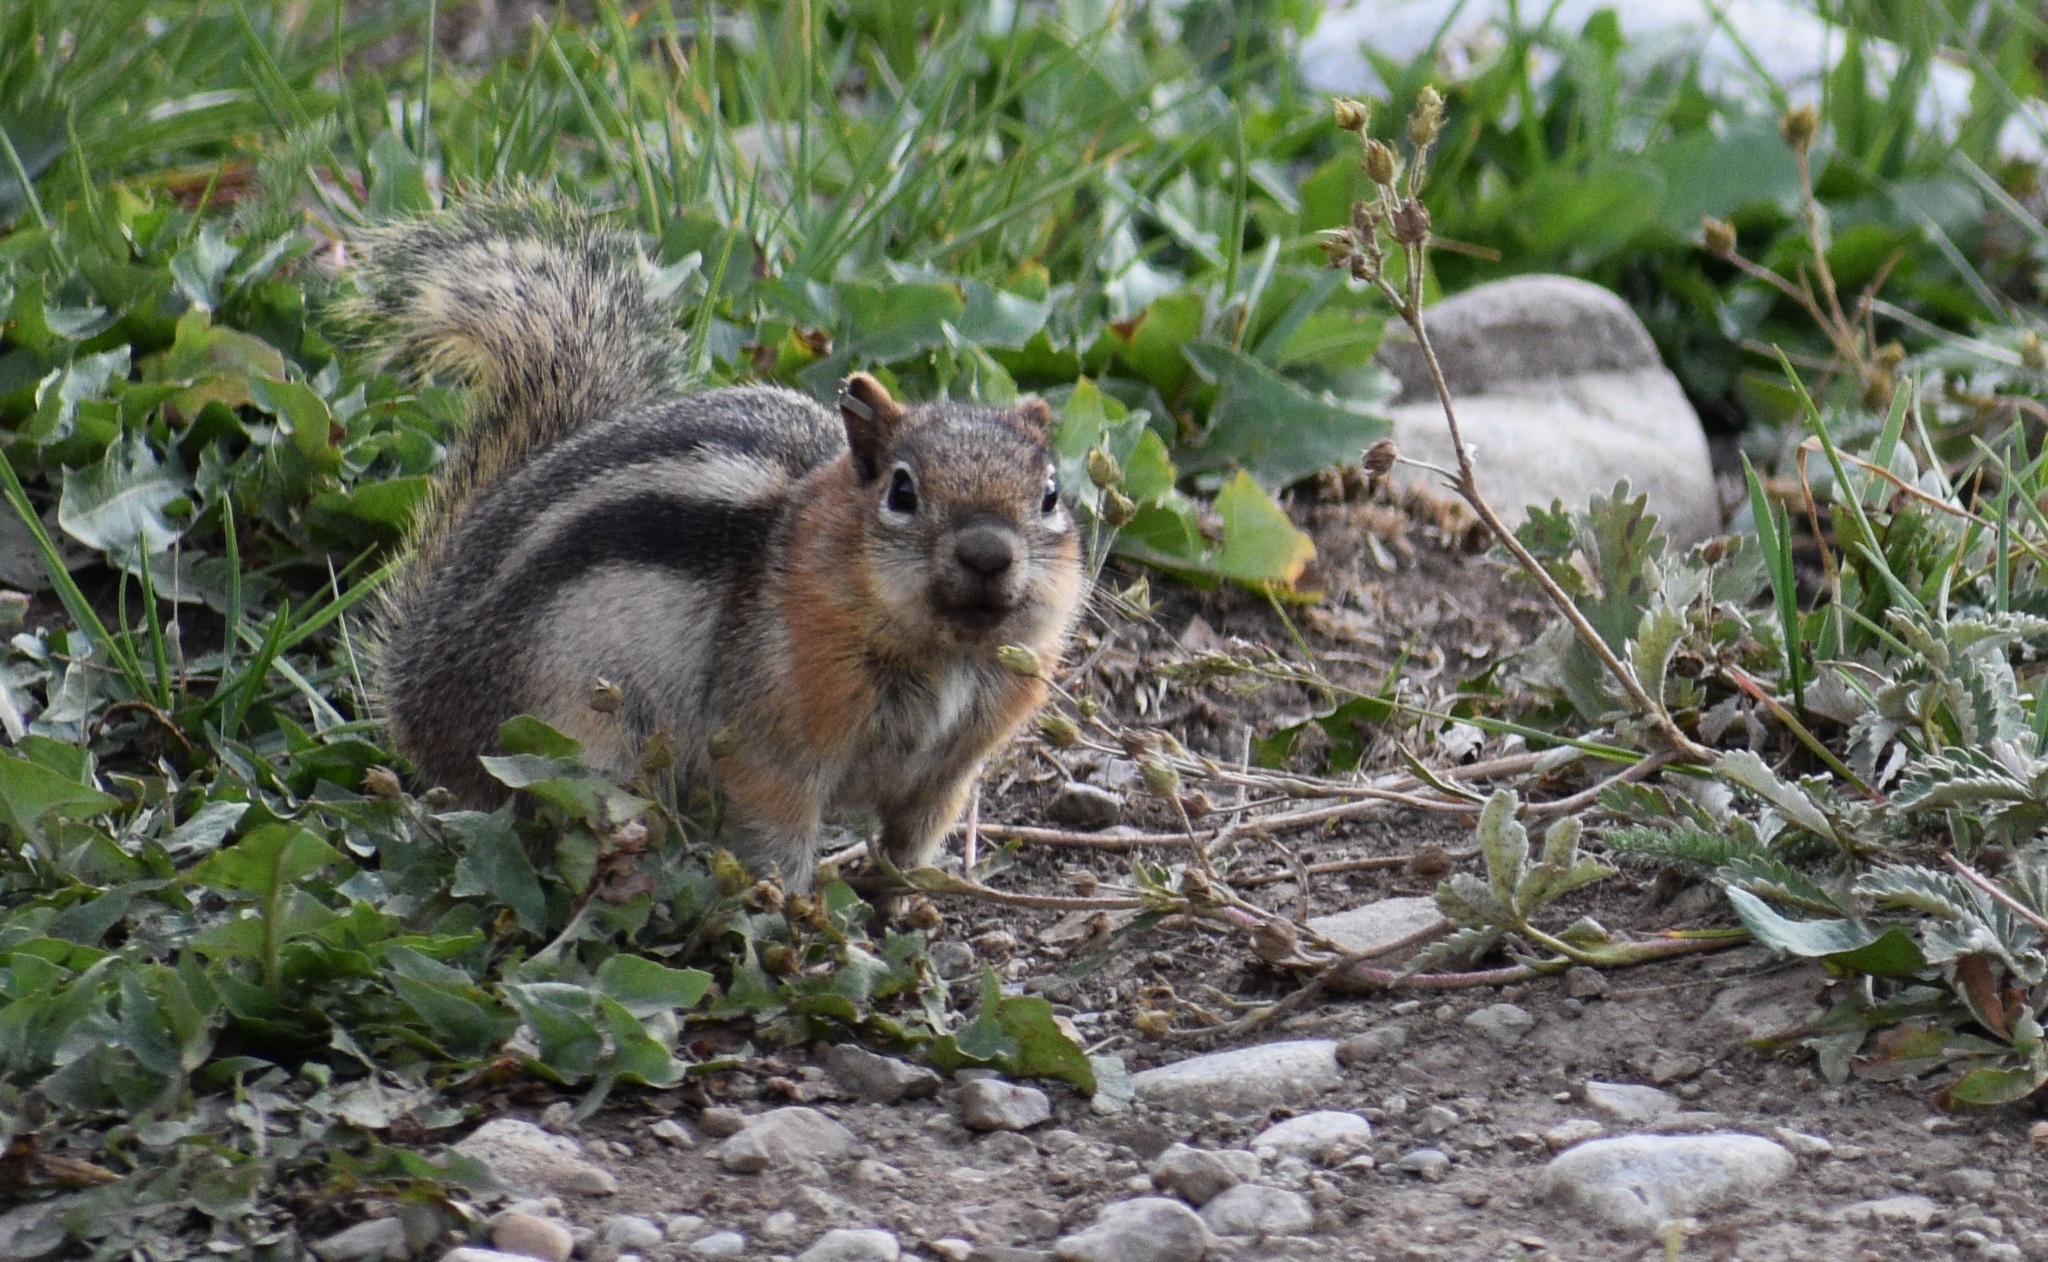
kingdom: Animalia
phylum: Chordata
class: Mammalia
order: Rodentia
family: Sciuridae
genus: Callospermophilus
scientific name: Callospermophilus lateralis
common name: Golden-mantled ground squirrel
